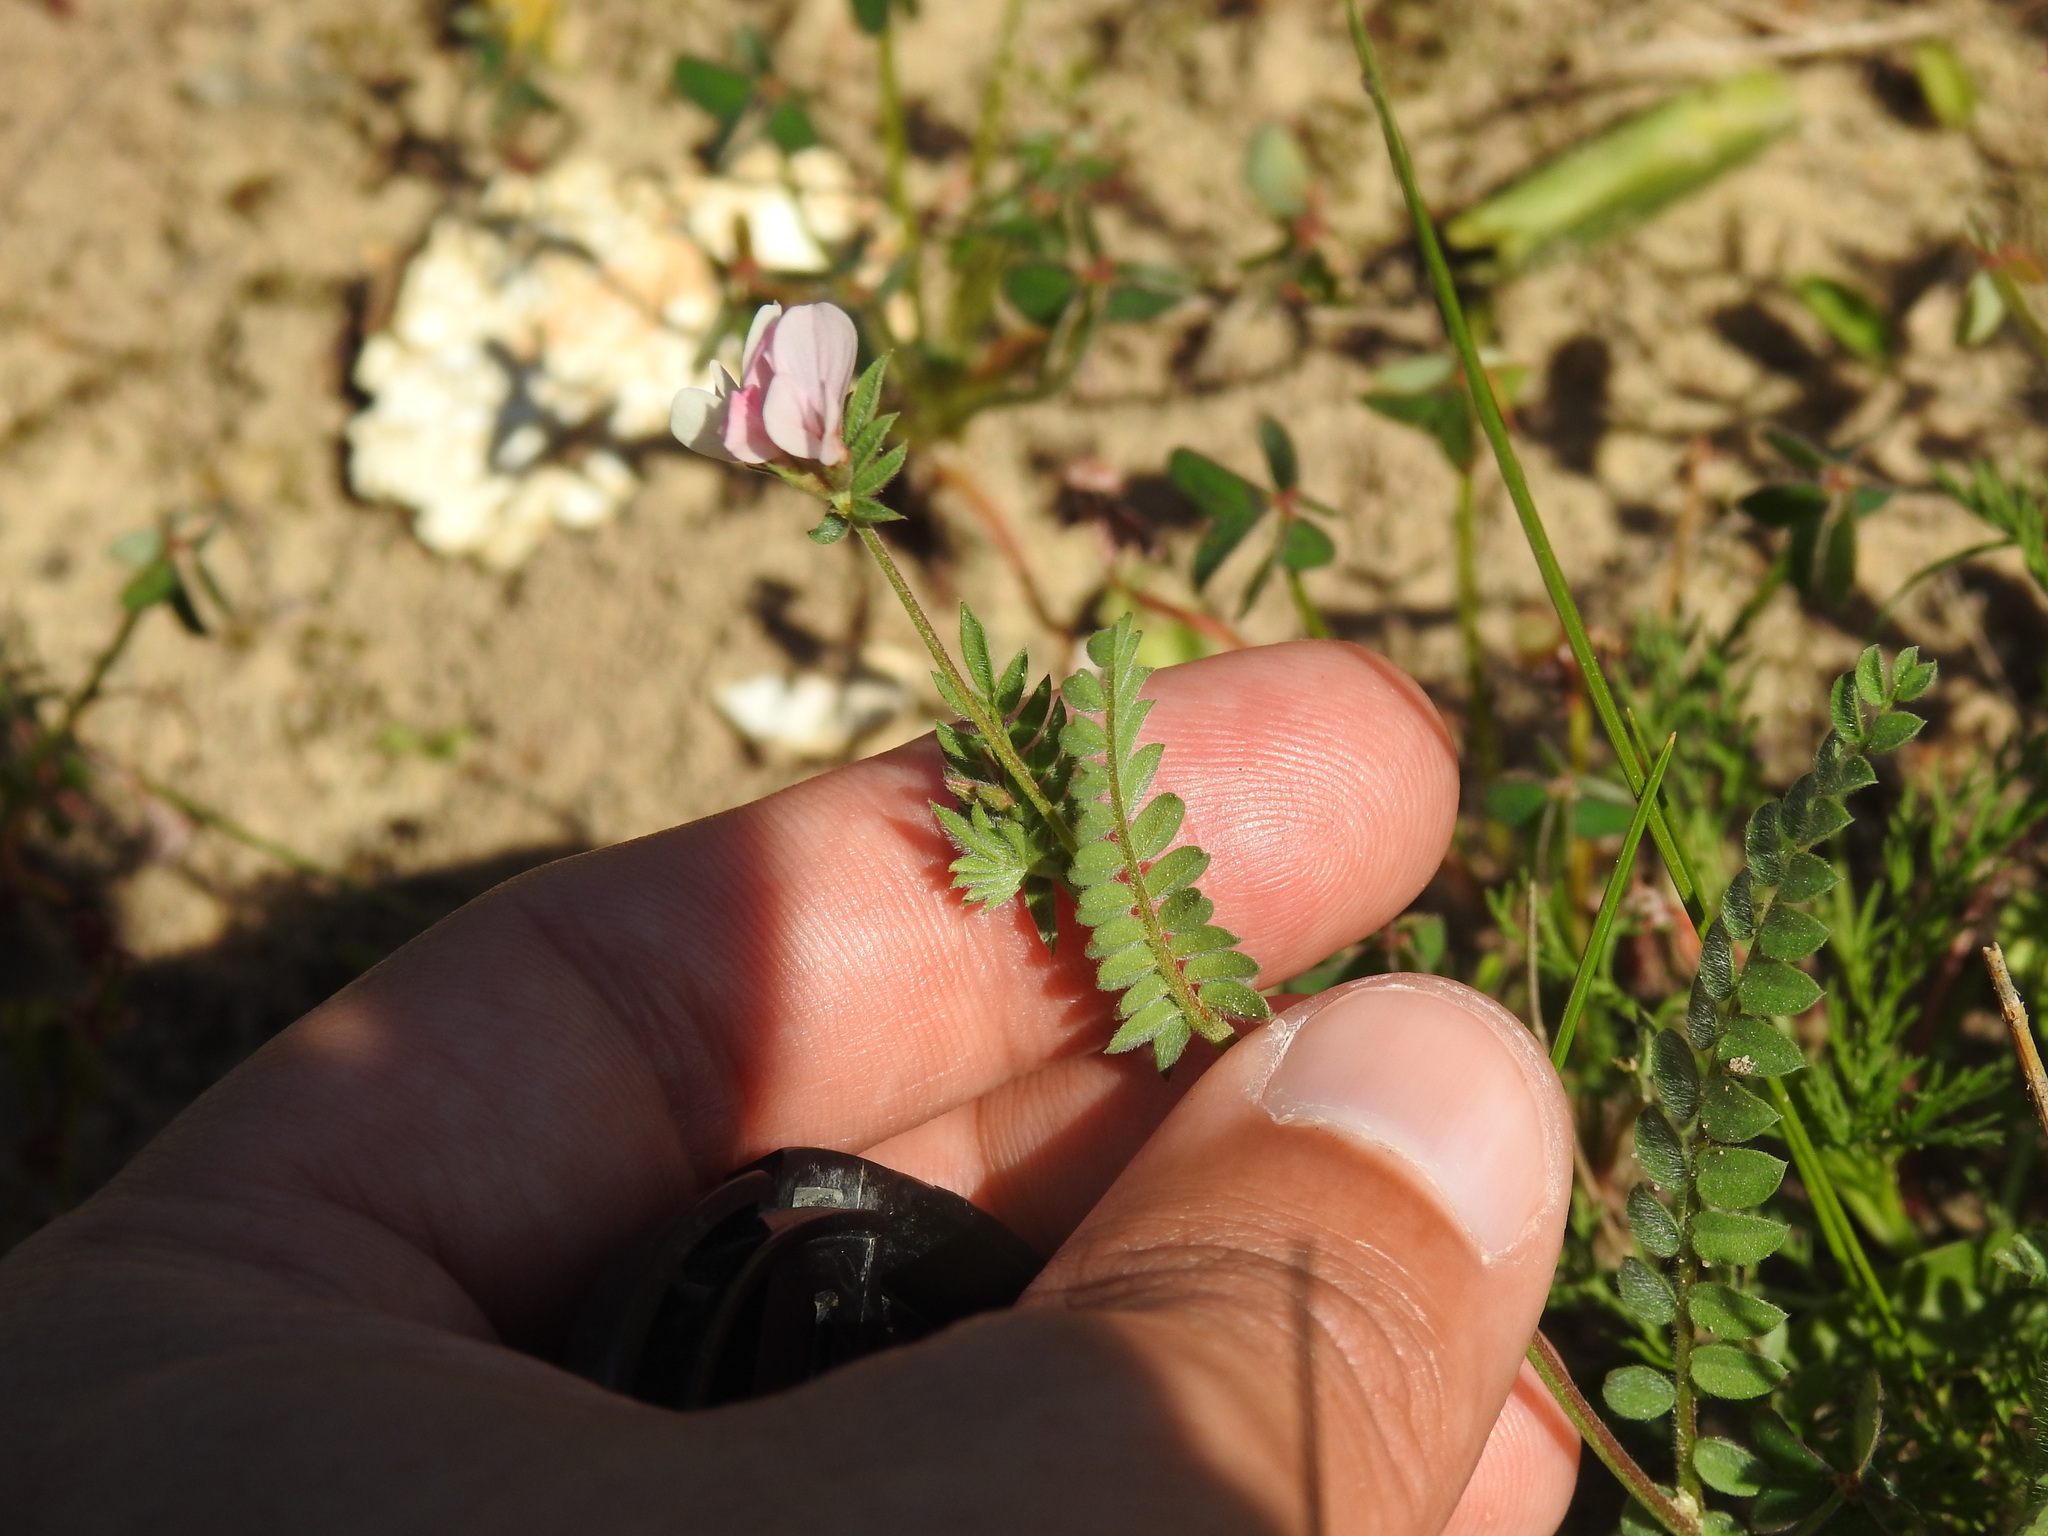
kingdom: Plantae
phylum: Tracheophyta
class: Magnoliopsida
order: Fabales
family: Fabaceae
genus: Ornithopus
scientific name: Ornithopus sativus
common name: Serradella
